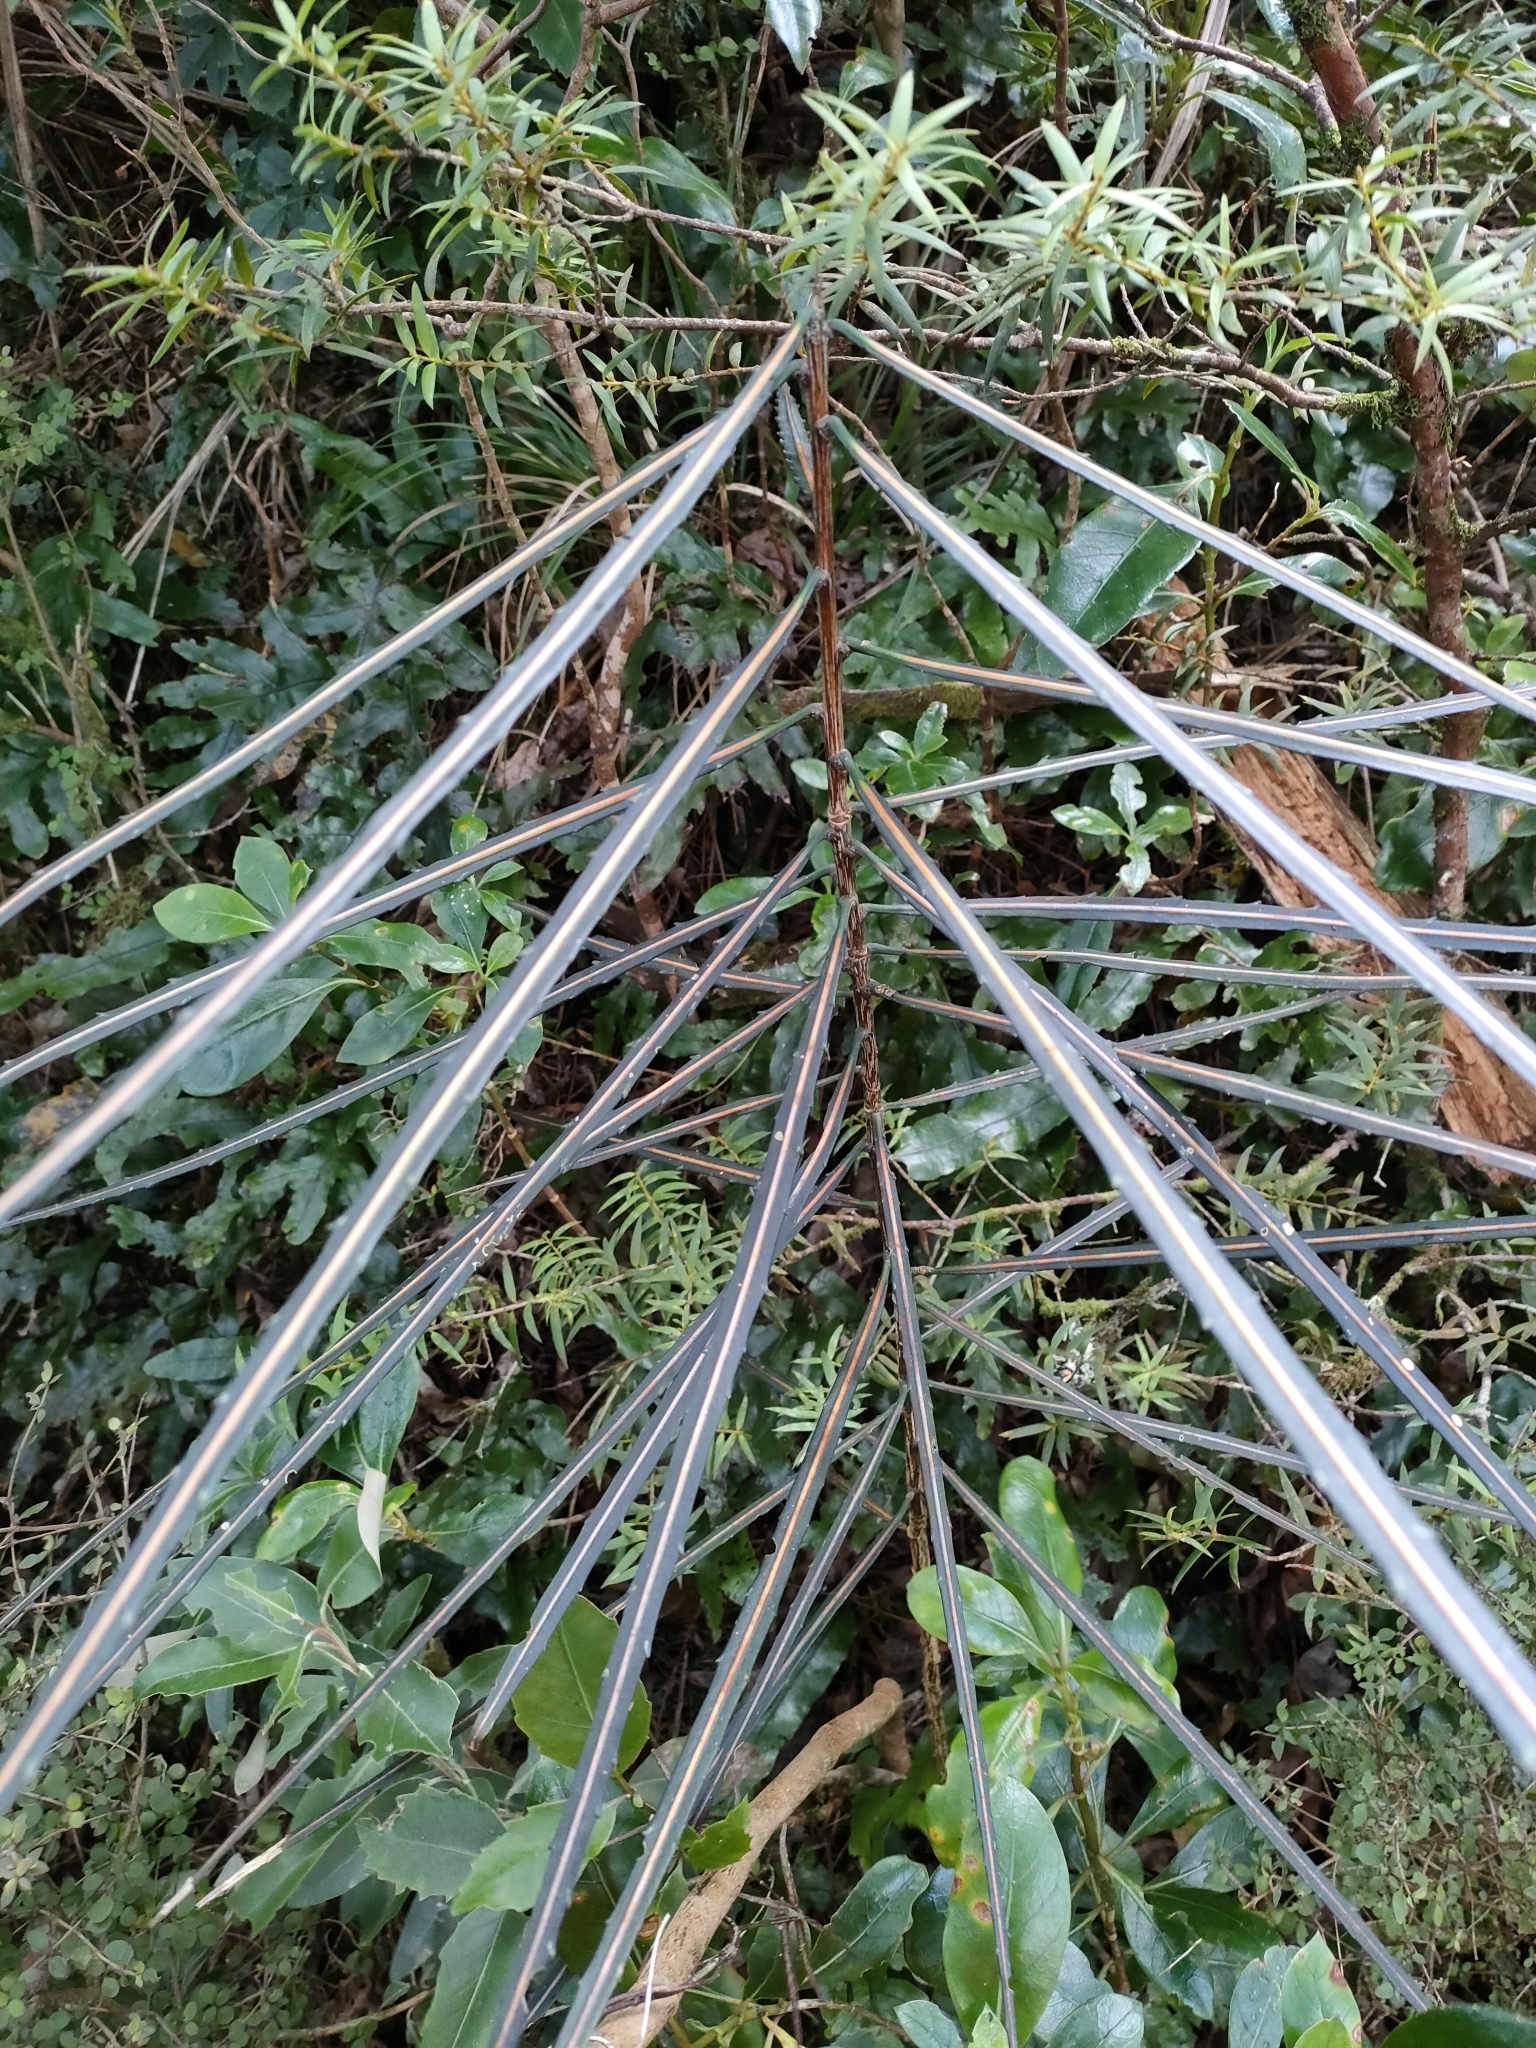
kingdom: Plantae
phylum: Tracheophyta
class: Magnoliopsida
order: Apiales
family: Araliaceae
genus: Pseudopanax
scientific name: Pseudopanax crassifolius
